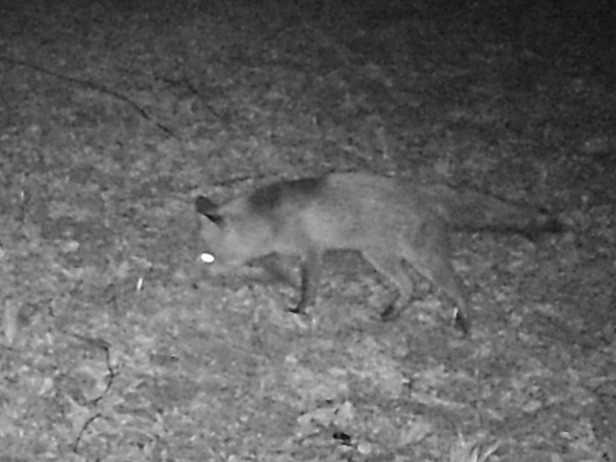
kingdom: Animalia
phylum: Chordata
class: Mammalia
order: Carnivora
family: Canidae
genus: Vulpes
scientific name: Vulpes vulpes
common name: Red fox
